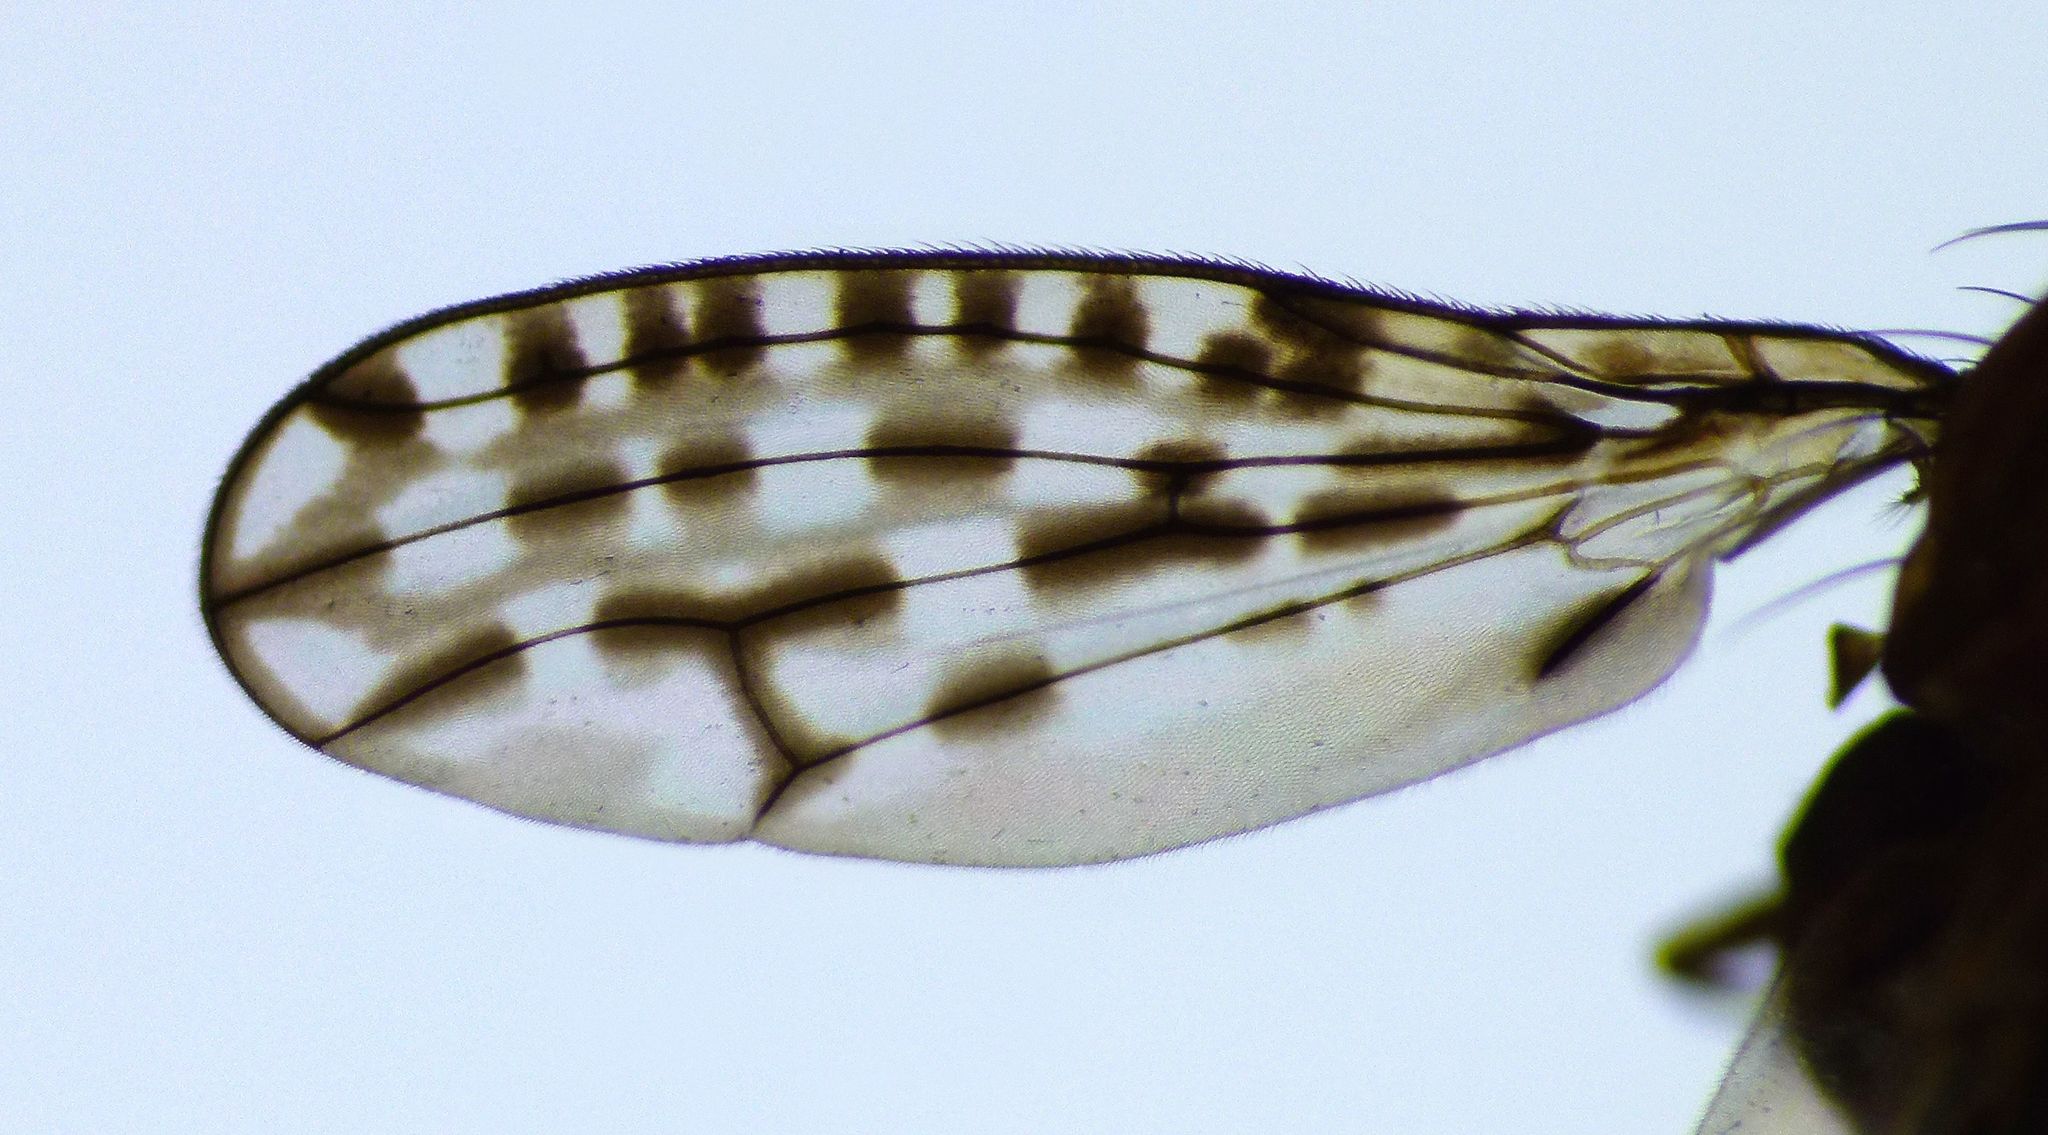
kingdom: Animalia
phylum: Arthropoda
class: Insecta
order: Diptera
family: Huttoninidae
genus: Huttonina
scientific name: Huttonina scutellaris
